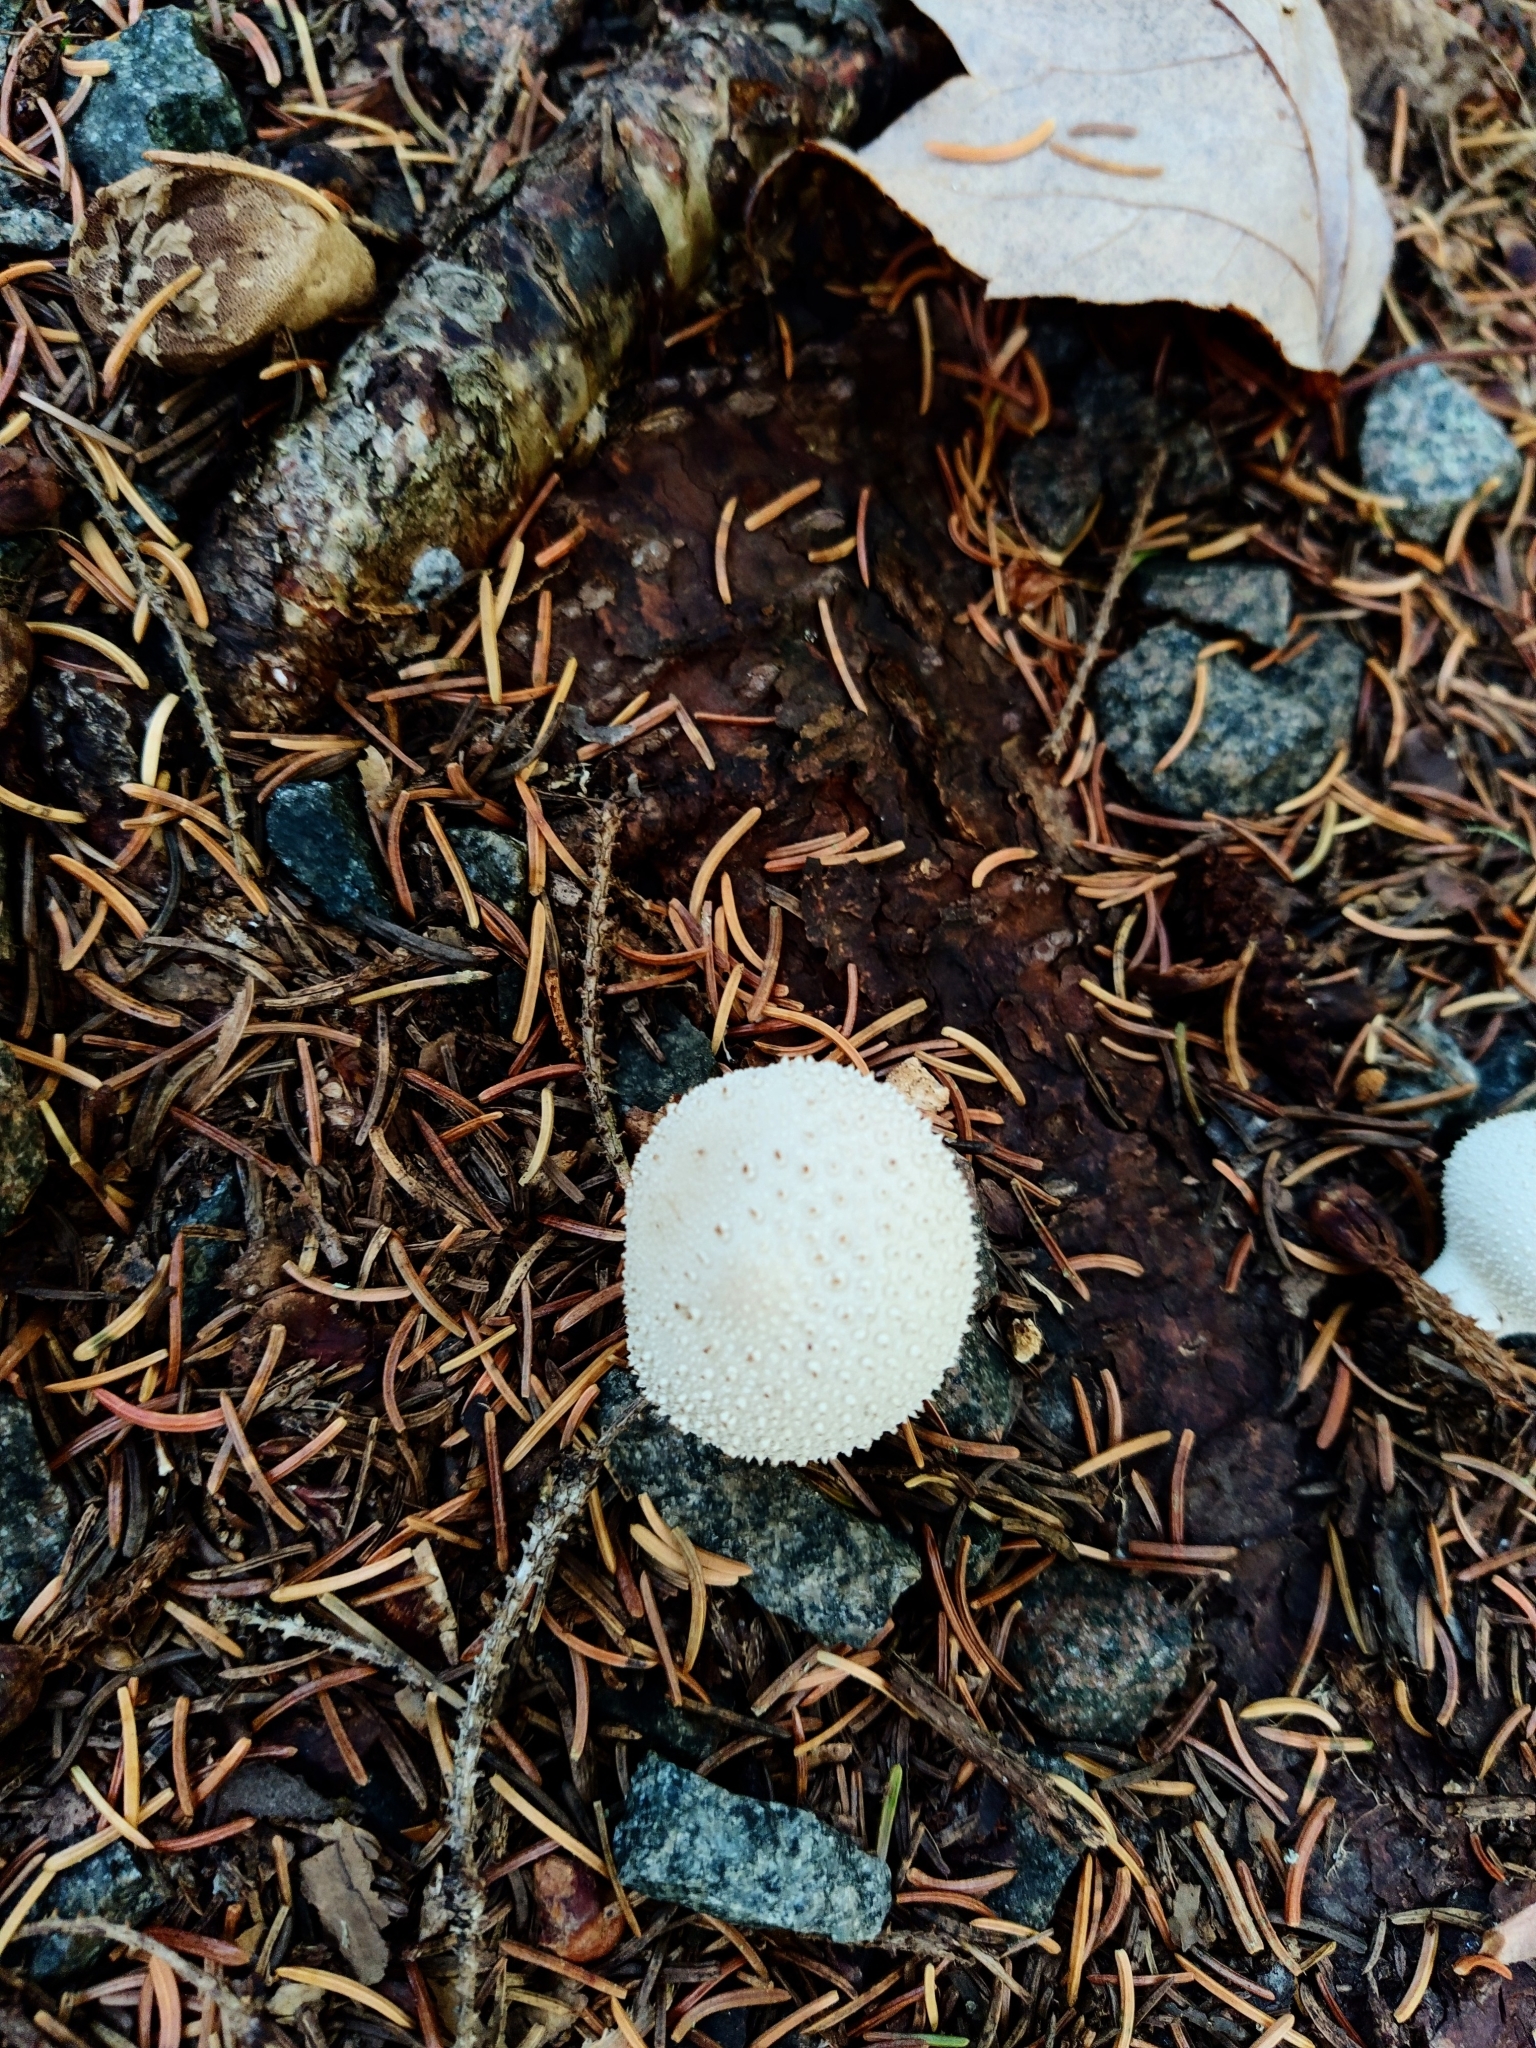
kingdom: Fungi
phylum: Basidiomycota
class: Agaricomycetes
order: Agaricales
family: Lycoperdaceae
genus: Lycoperdon
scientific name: Lycoperdon perlatum
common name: Common puffball
